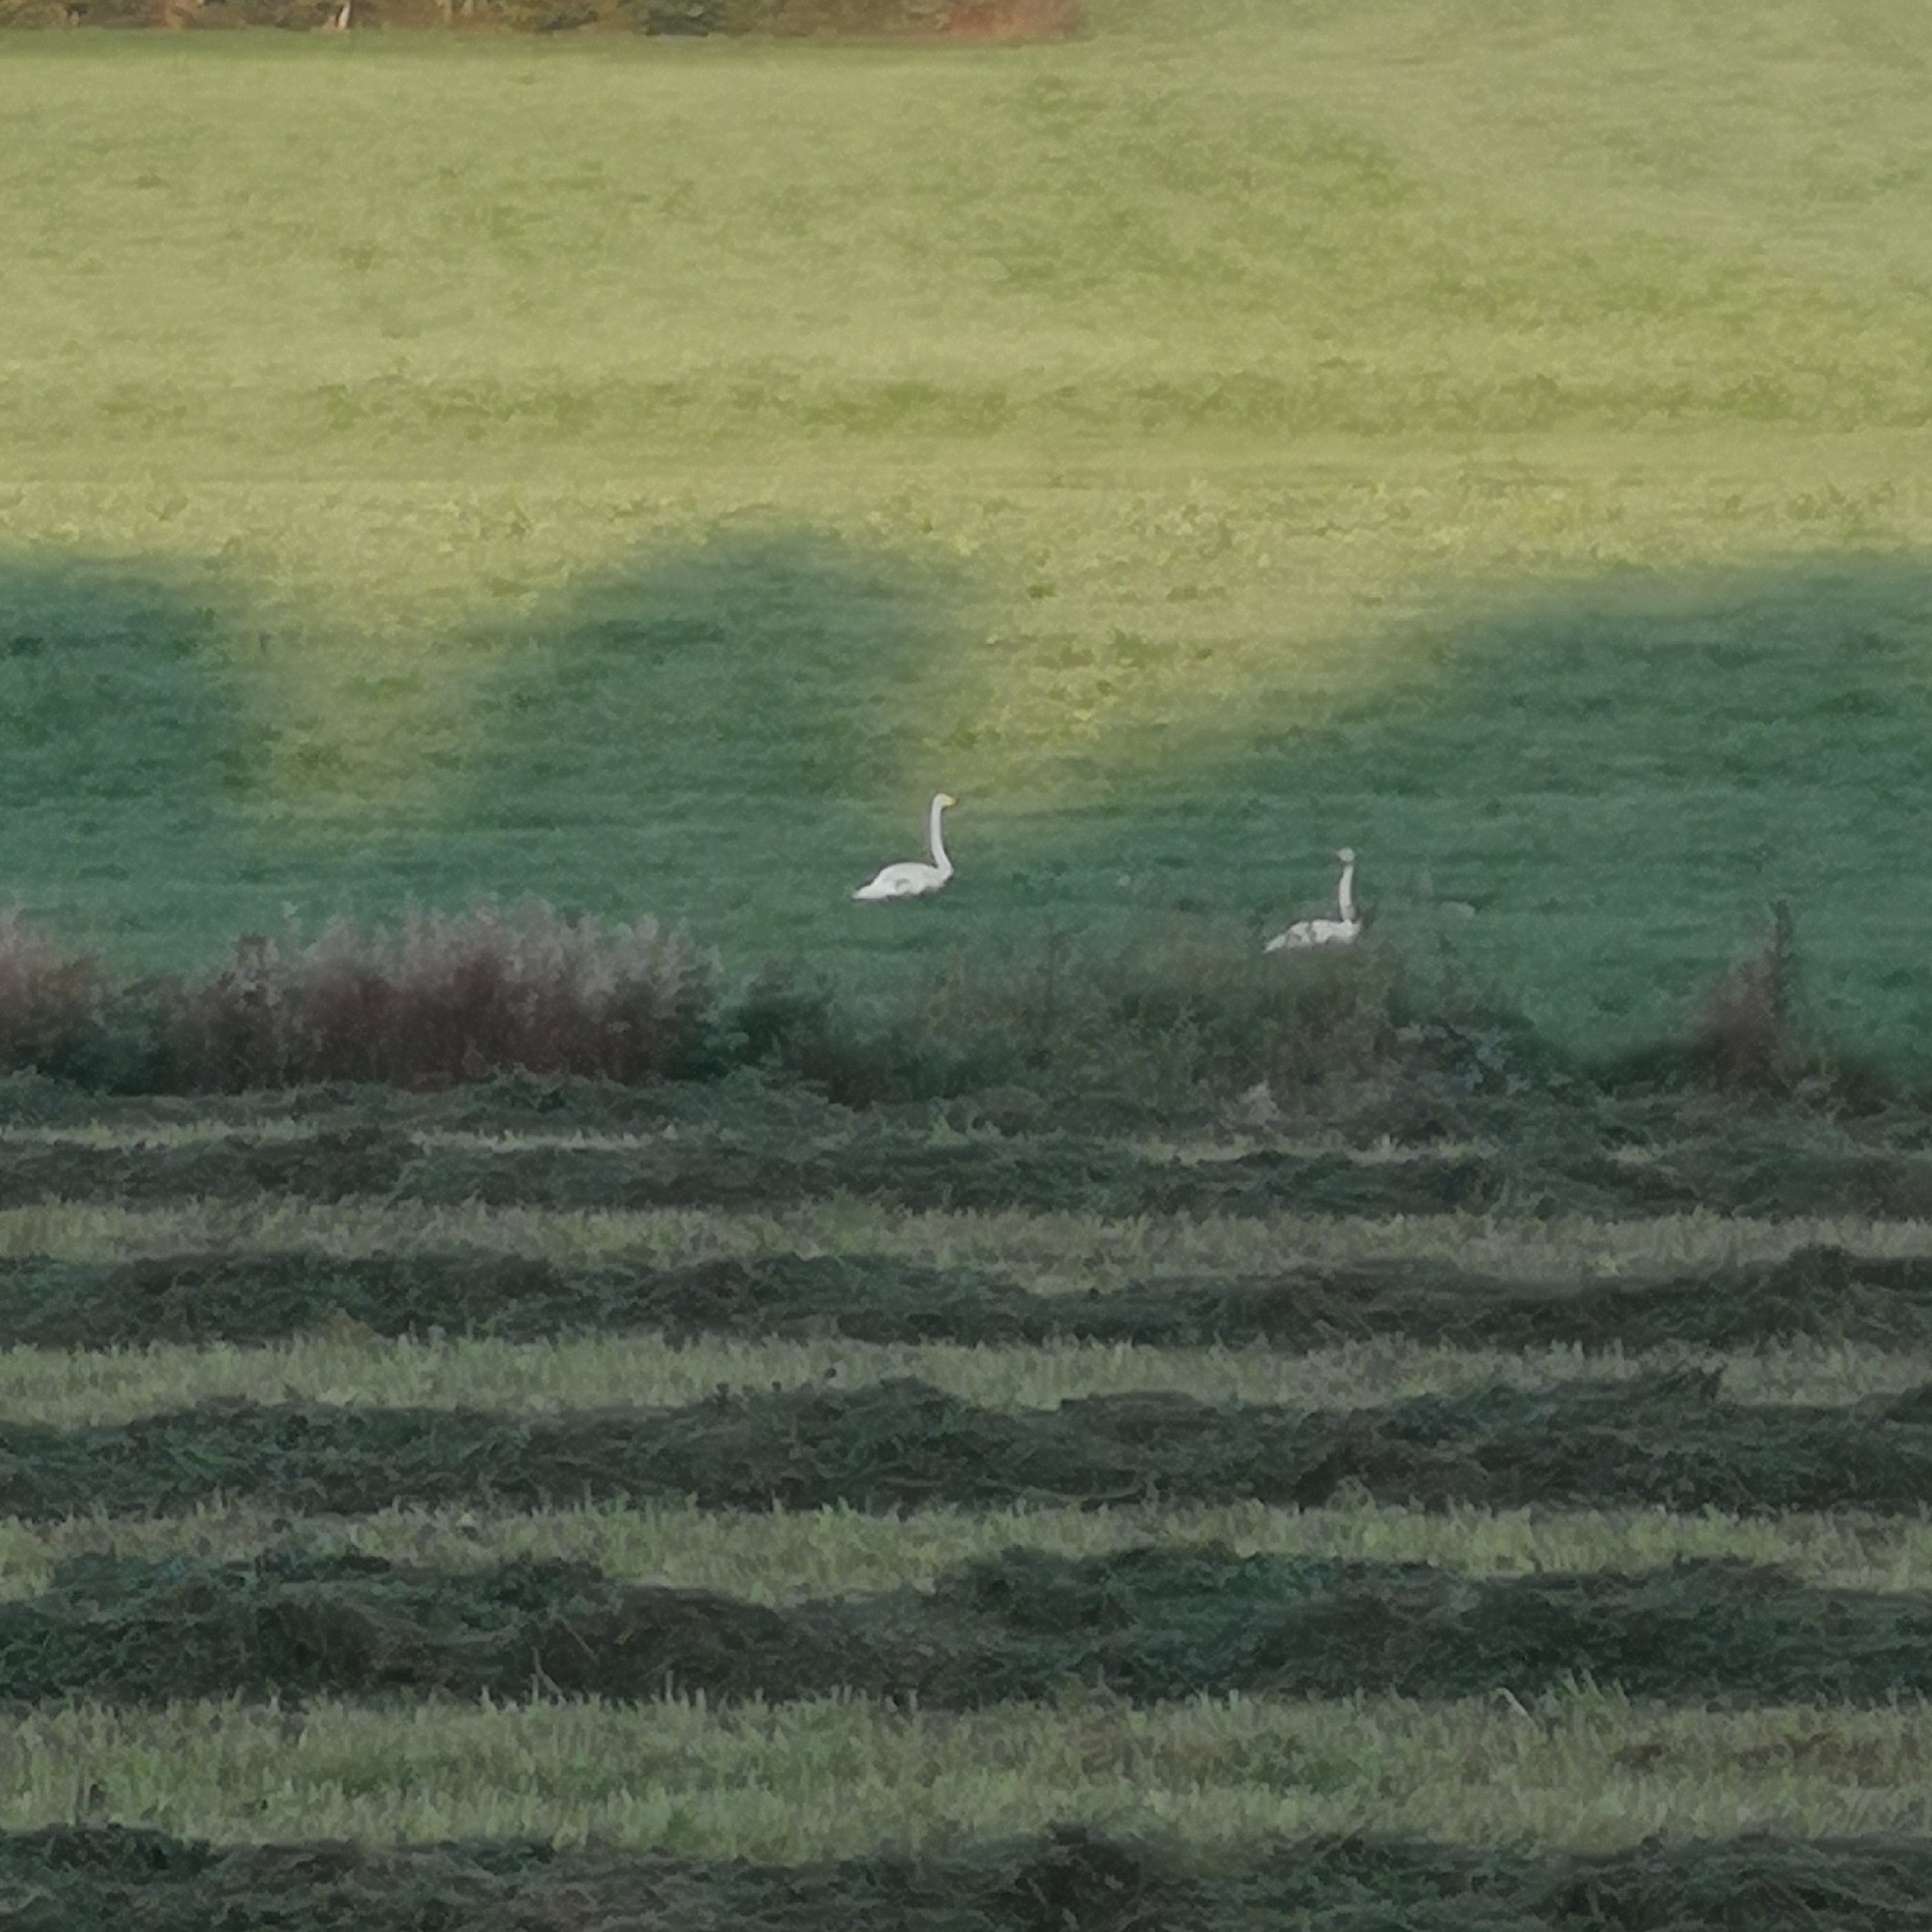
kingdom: Animalia
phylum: Chordata
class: Aves
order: Anseriformes
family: Anatidae
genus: Cygnus
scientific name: Cygnus cygnus
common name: Whooper swan
